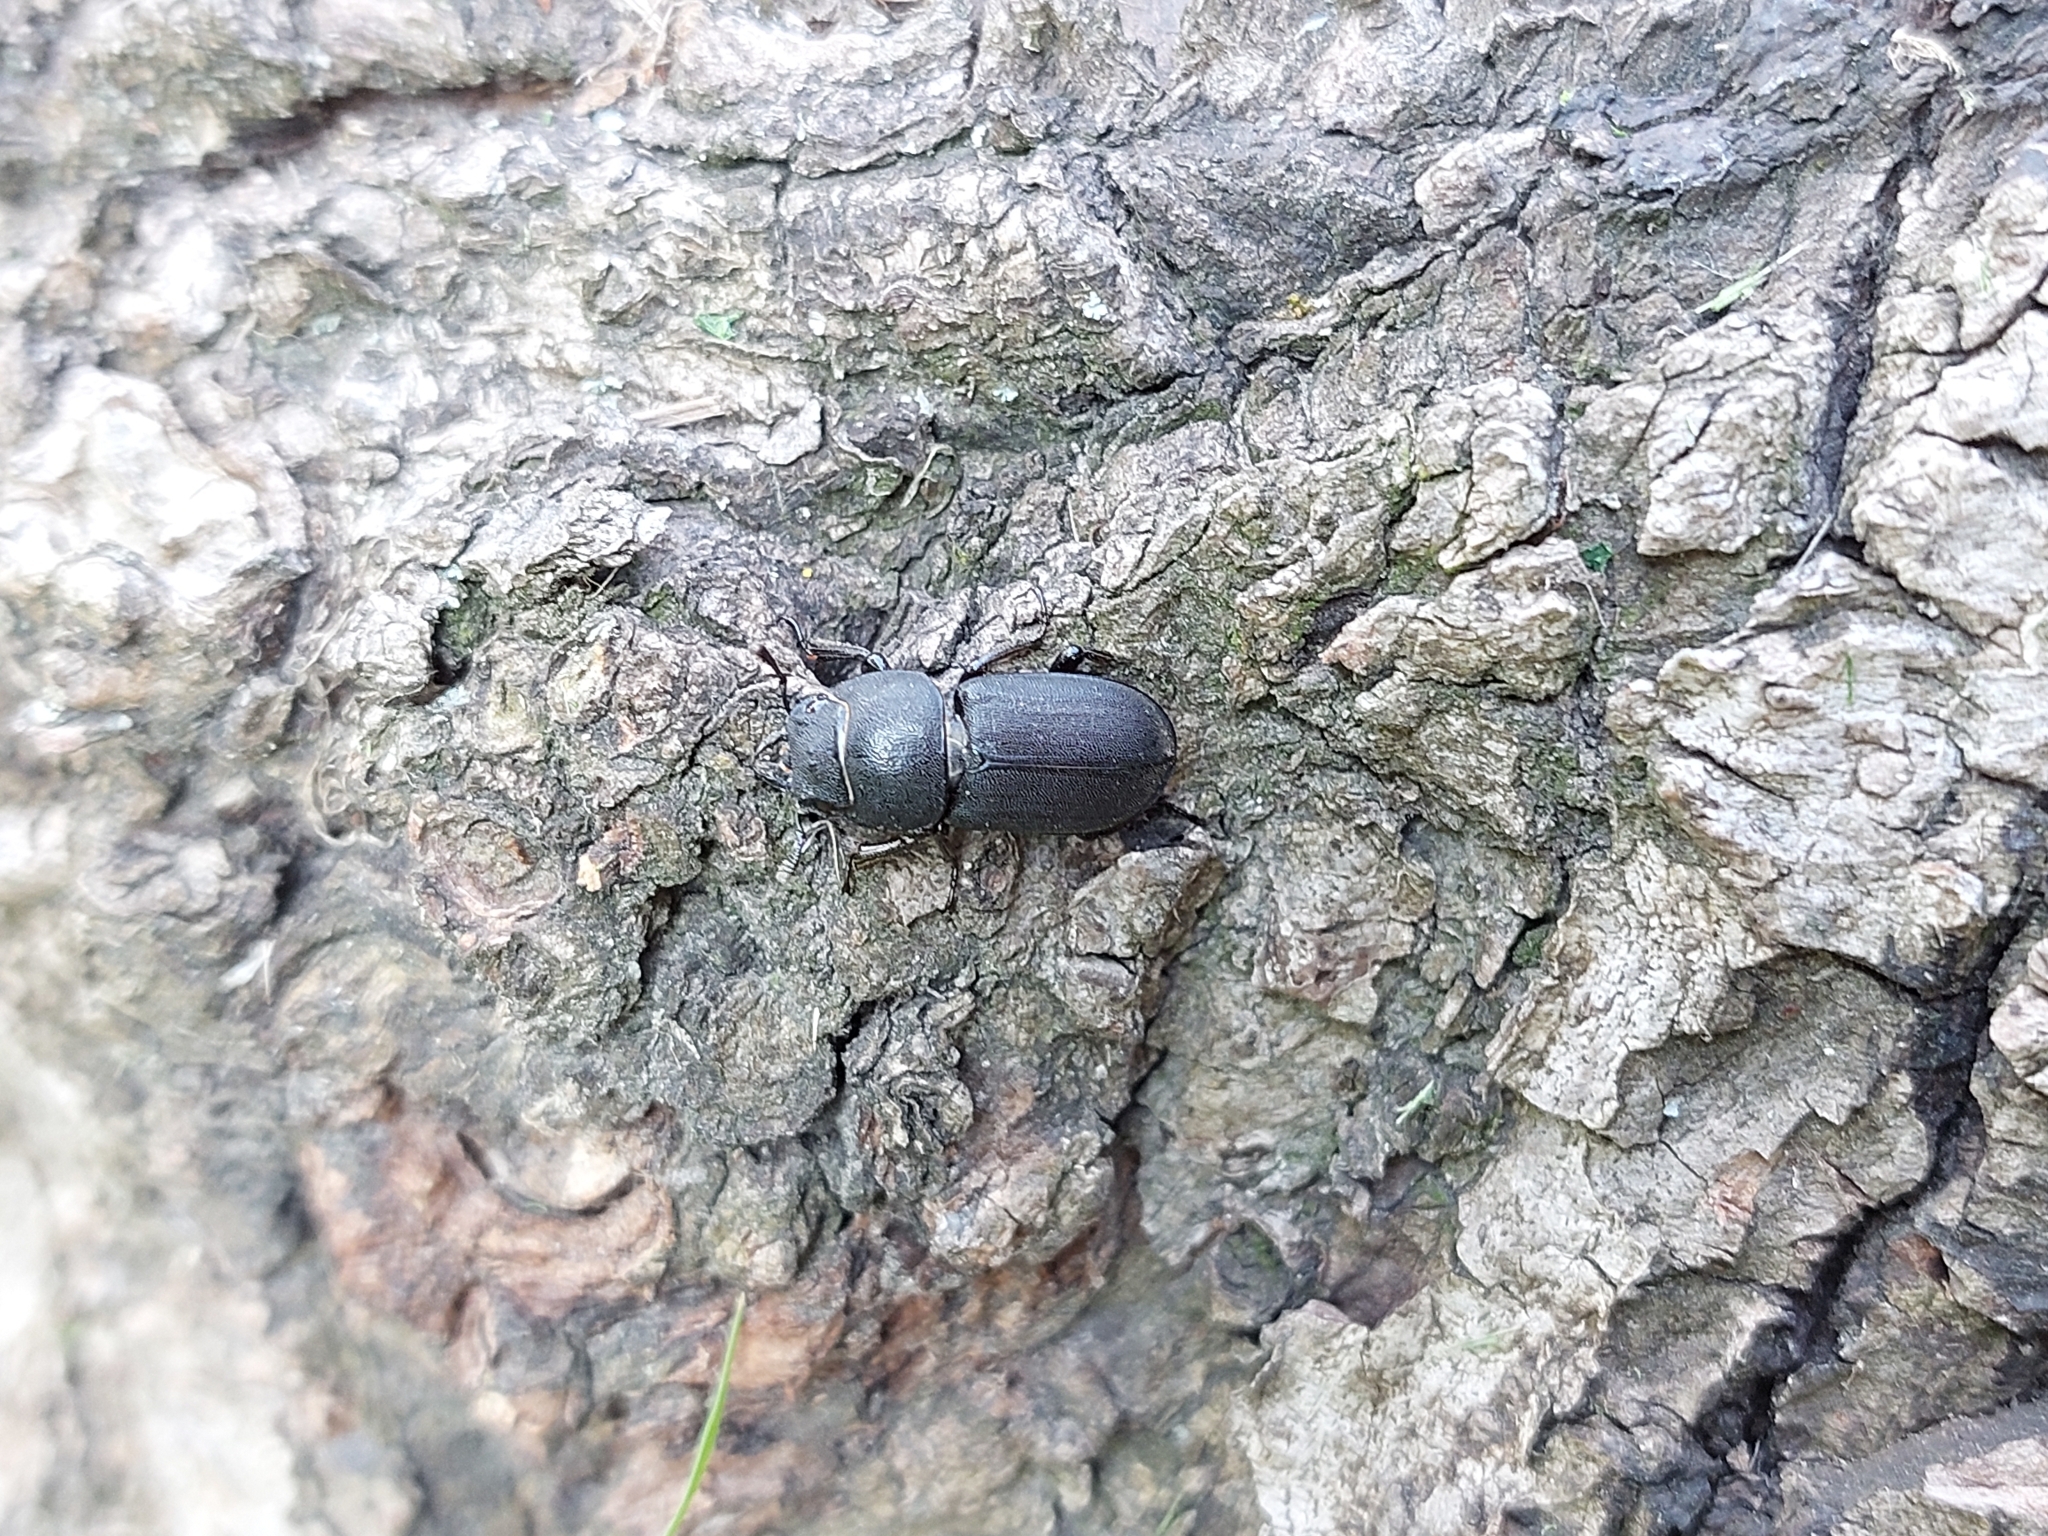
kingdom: Animalia
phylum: Arthropoda
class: Insecta
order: Coleoptera
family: Lucanidae
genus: Dorcus
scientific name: Dorcus parallelipipedus
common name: Lesser stag beetle
